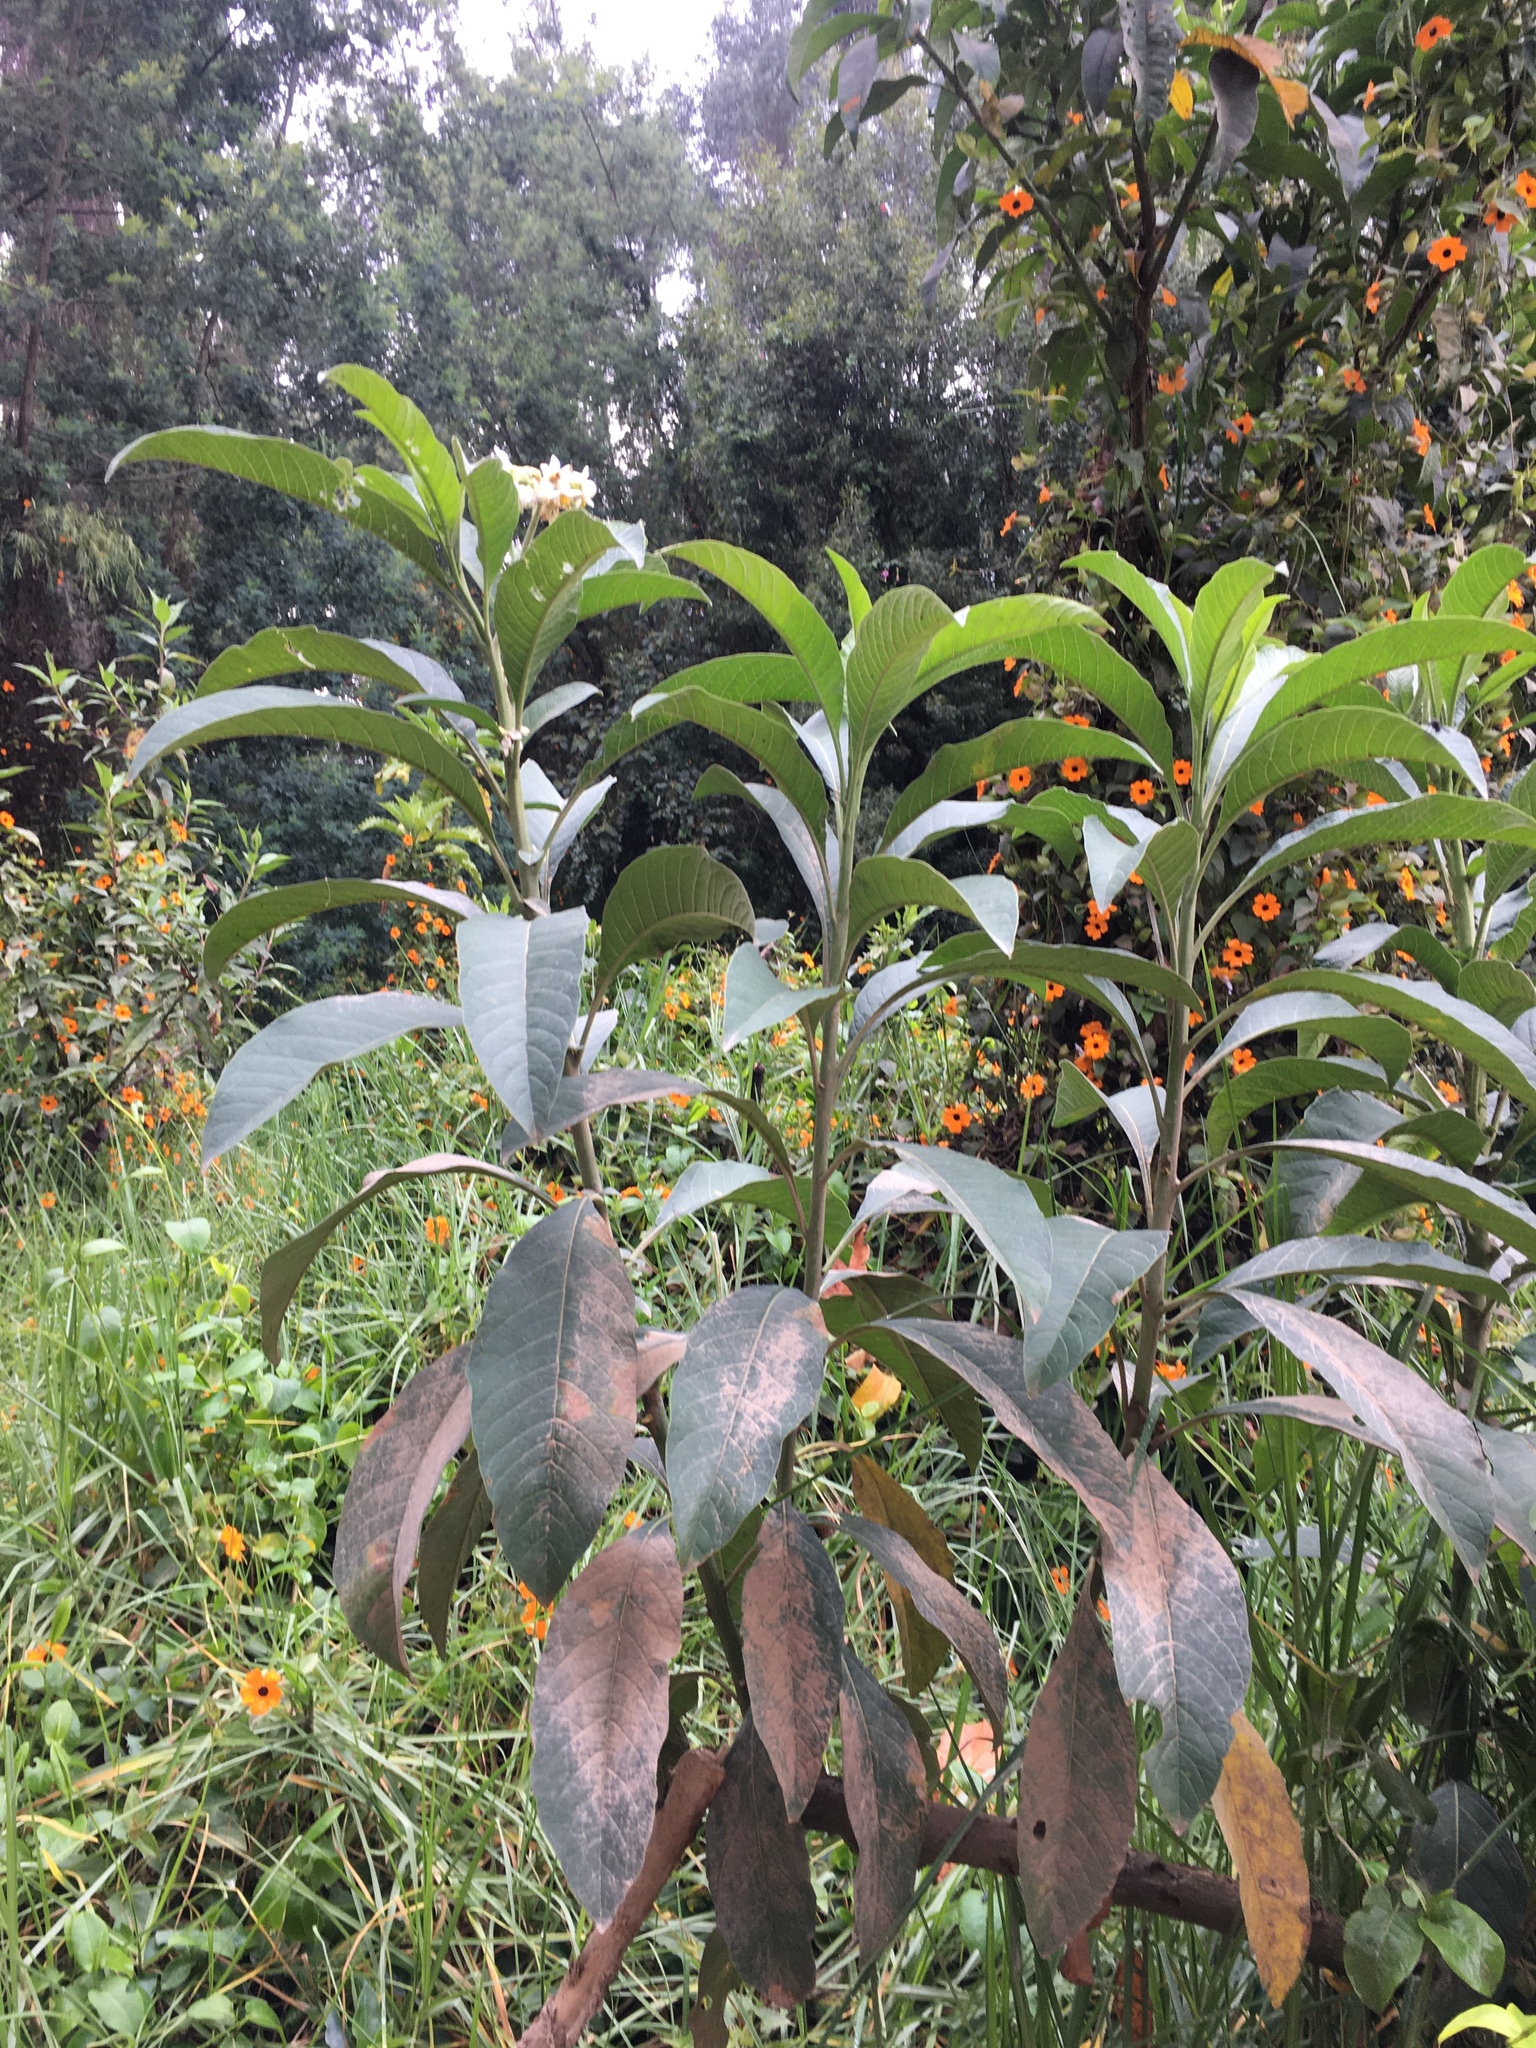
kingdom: Plantae
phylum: Tracheophyta
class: Magnoliopsida
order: Solanales
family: Solanaceae
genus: Solanum
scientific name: Solanum oblongifolium
